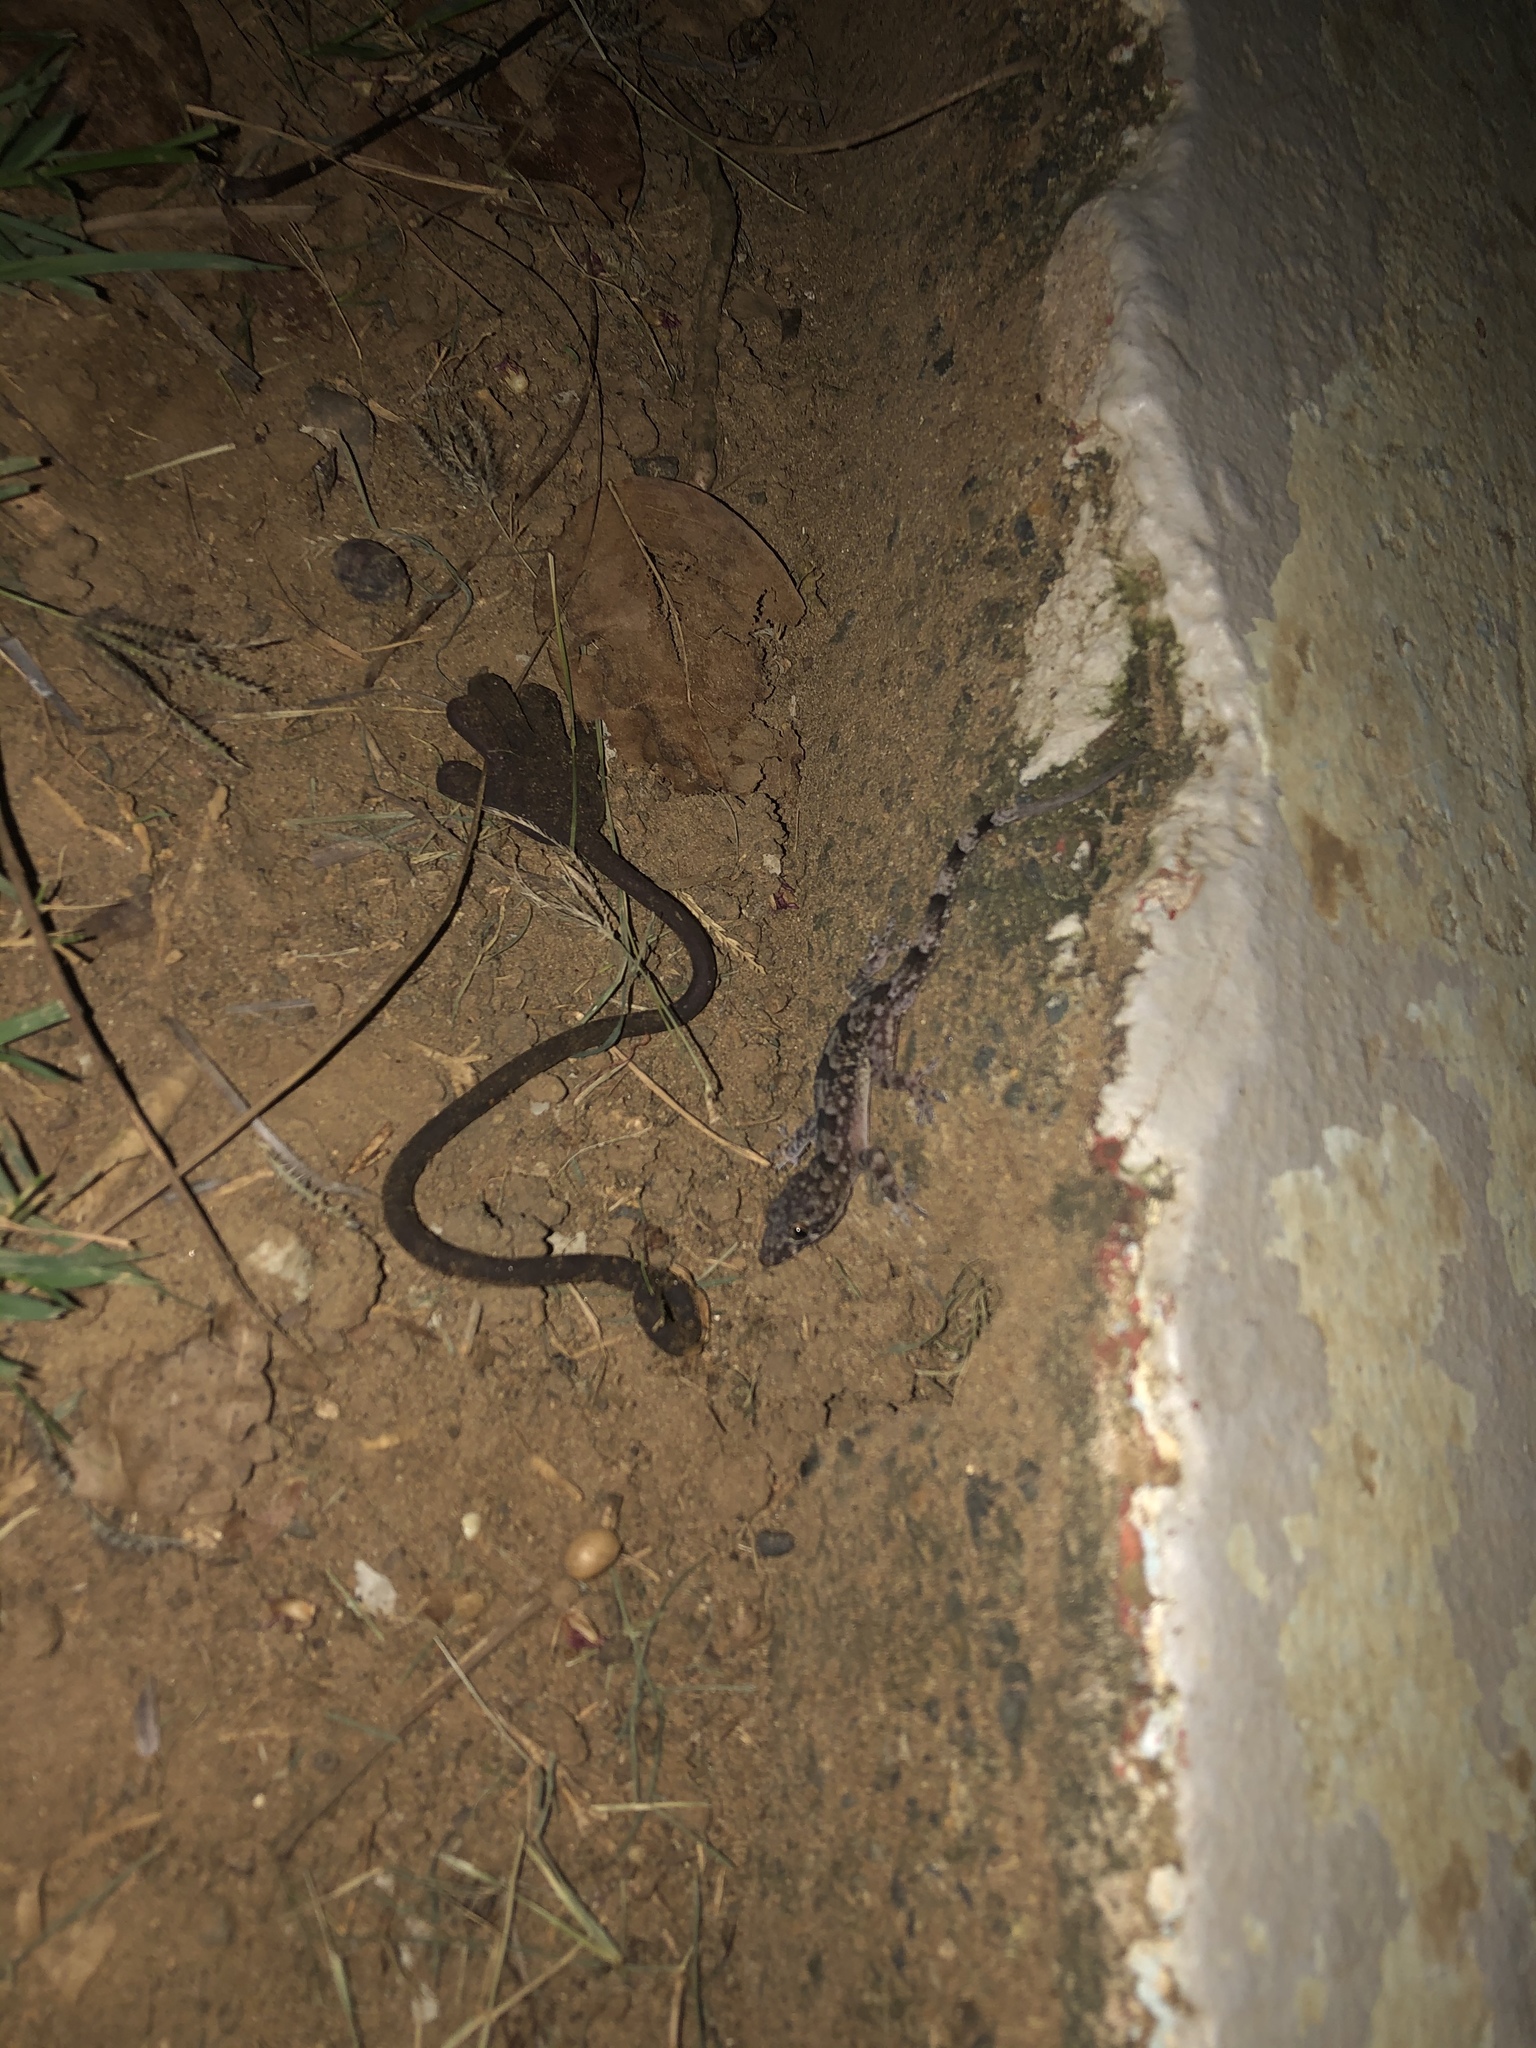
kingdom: Animalia
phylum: Chordata
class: Squamata
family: Gekkonidae
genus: Hemidactylus
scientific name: Hemidactylus mabouia
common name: House gecko
